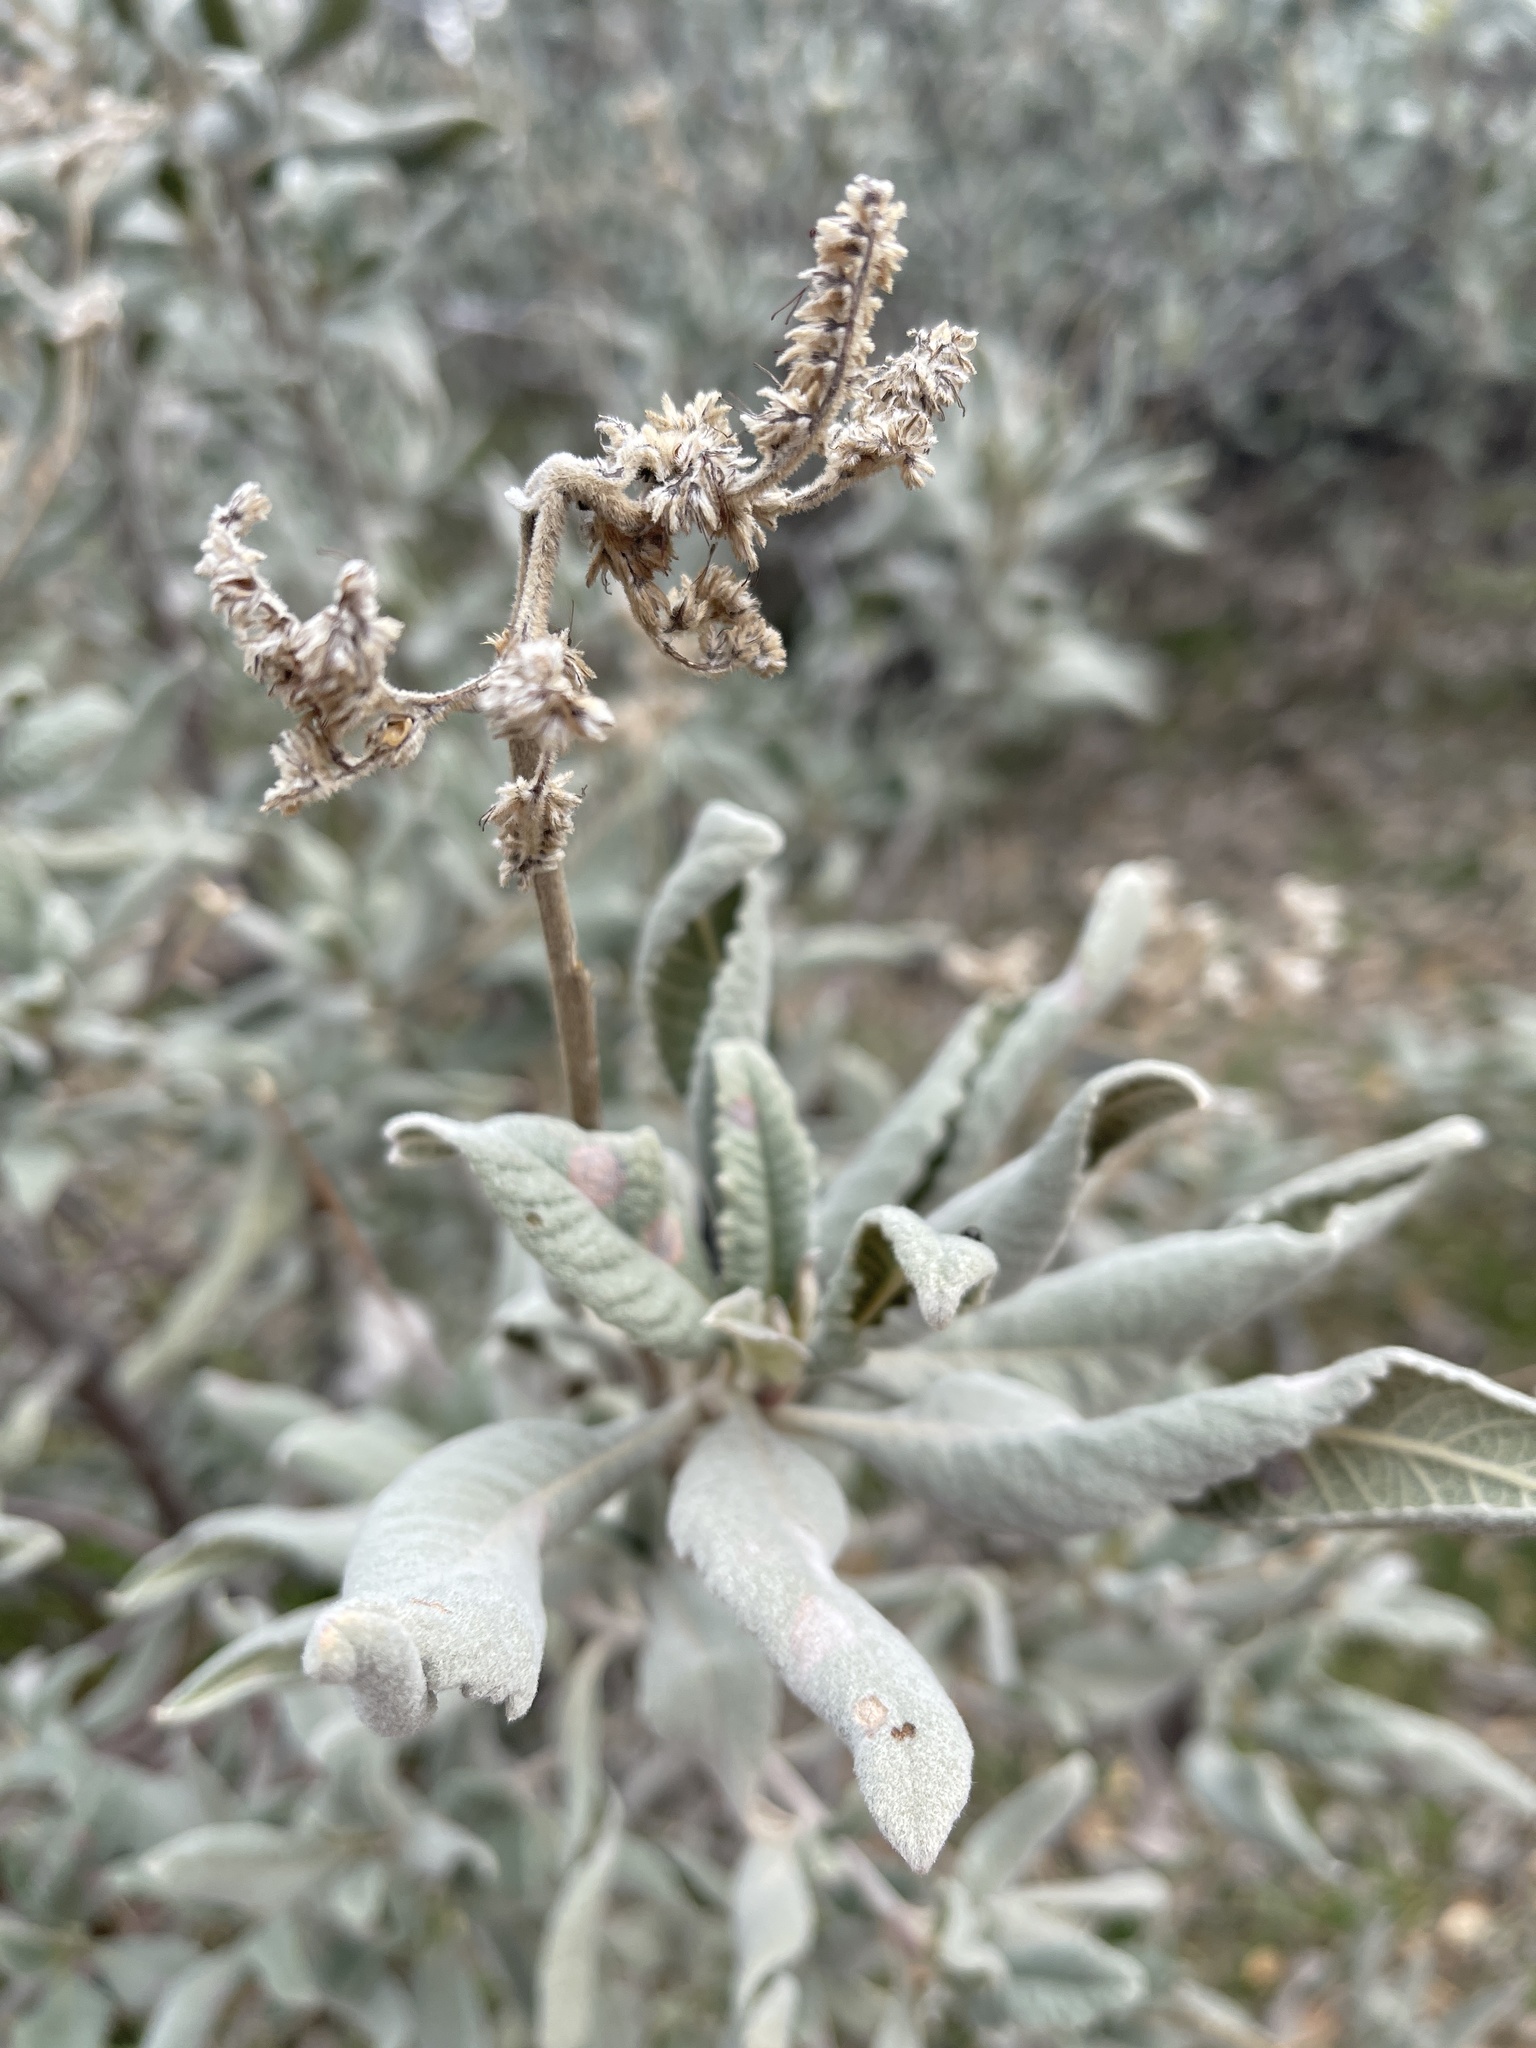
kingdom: Plantae
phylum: Tracheophyta
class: Magnoliopsida
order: Boraginales
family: Namaceae
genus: Eriodictyon
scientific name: Eriodictyon crassifolium
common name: Thick-leaf yerba-santa
